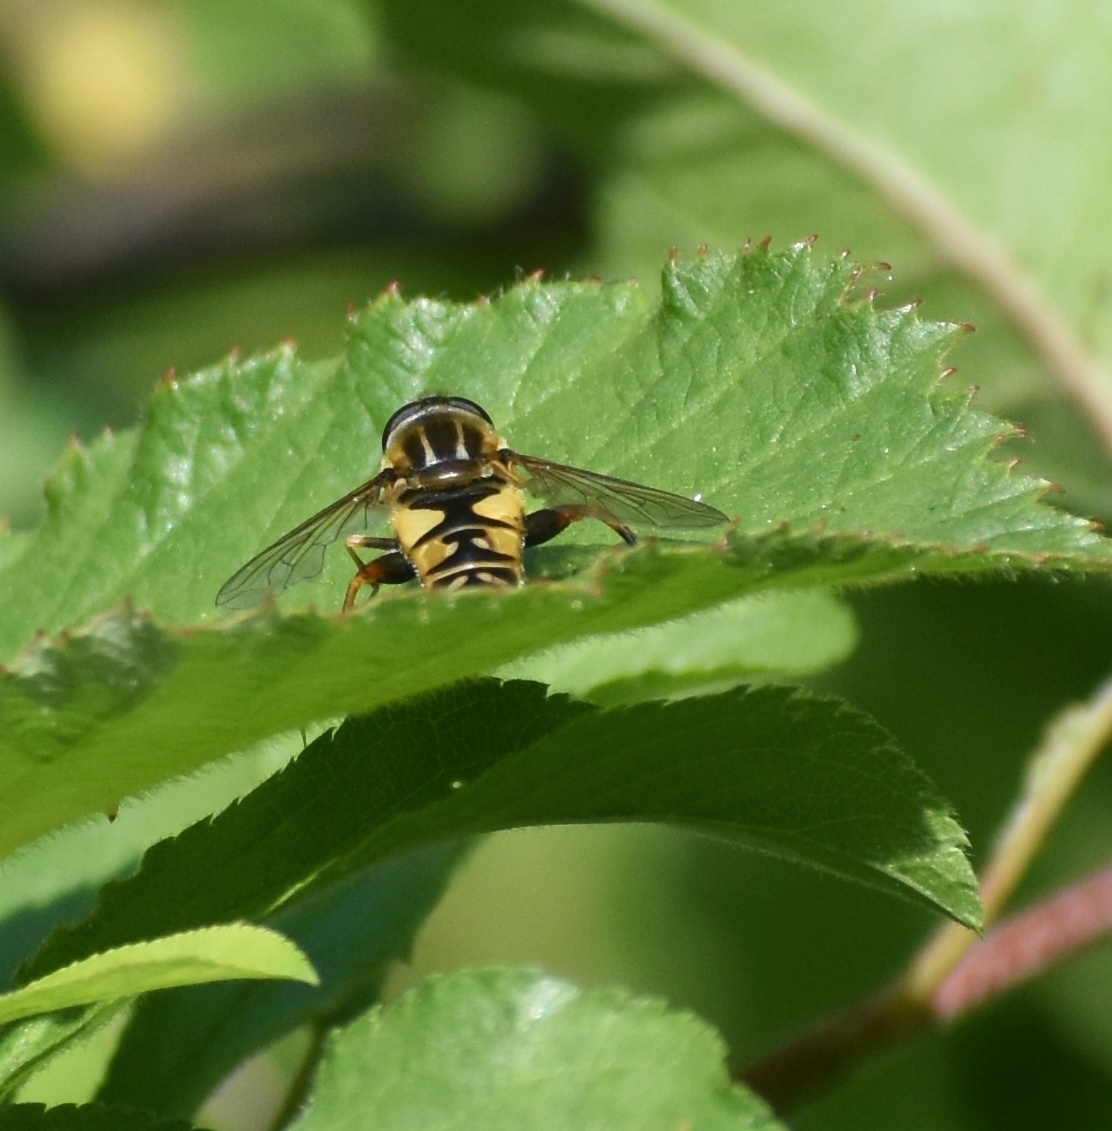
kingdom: Animalia
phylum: Arthropoda
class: Insecta
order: Diptera
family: Syrphidae
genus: Helophilus
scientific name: Helophilus pendulus
